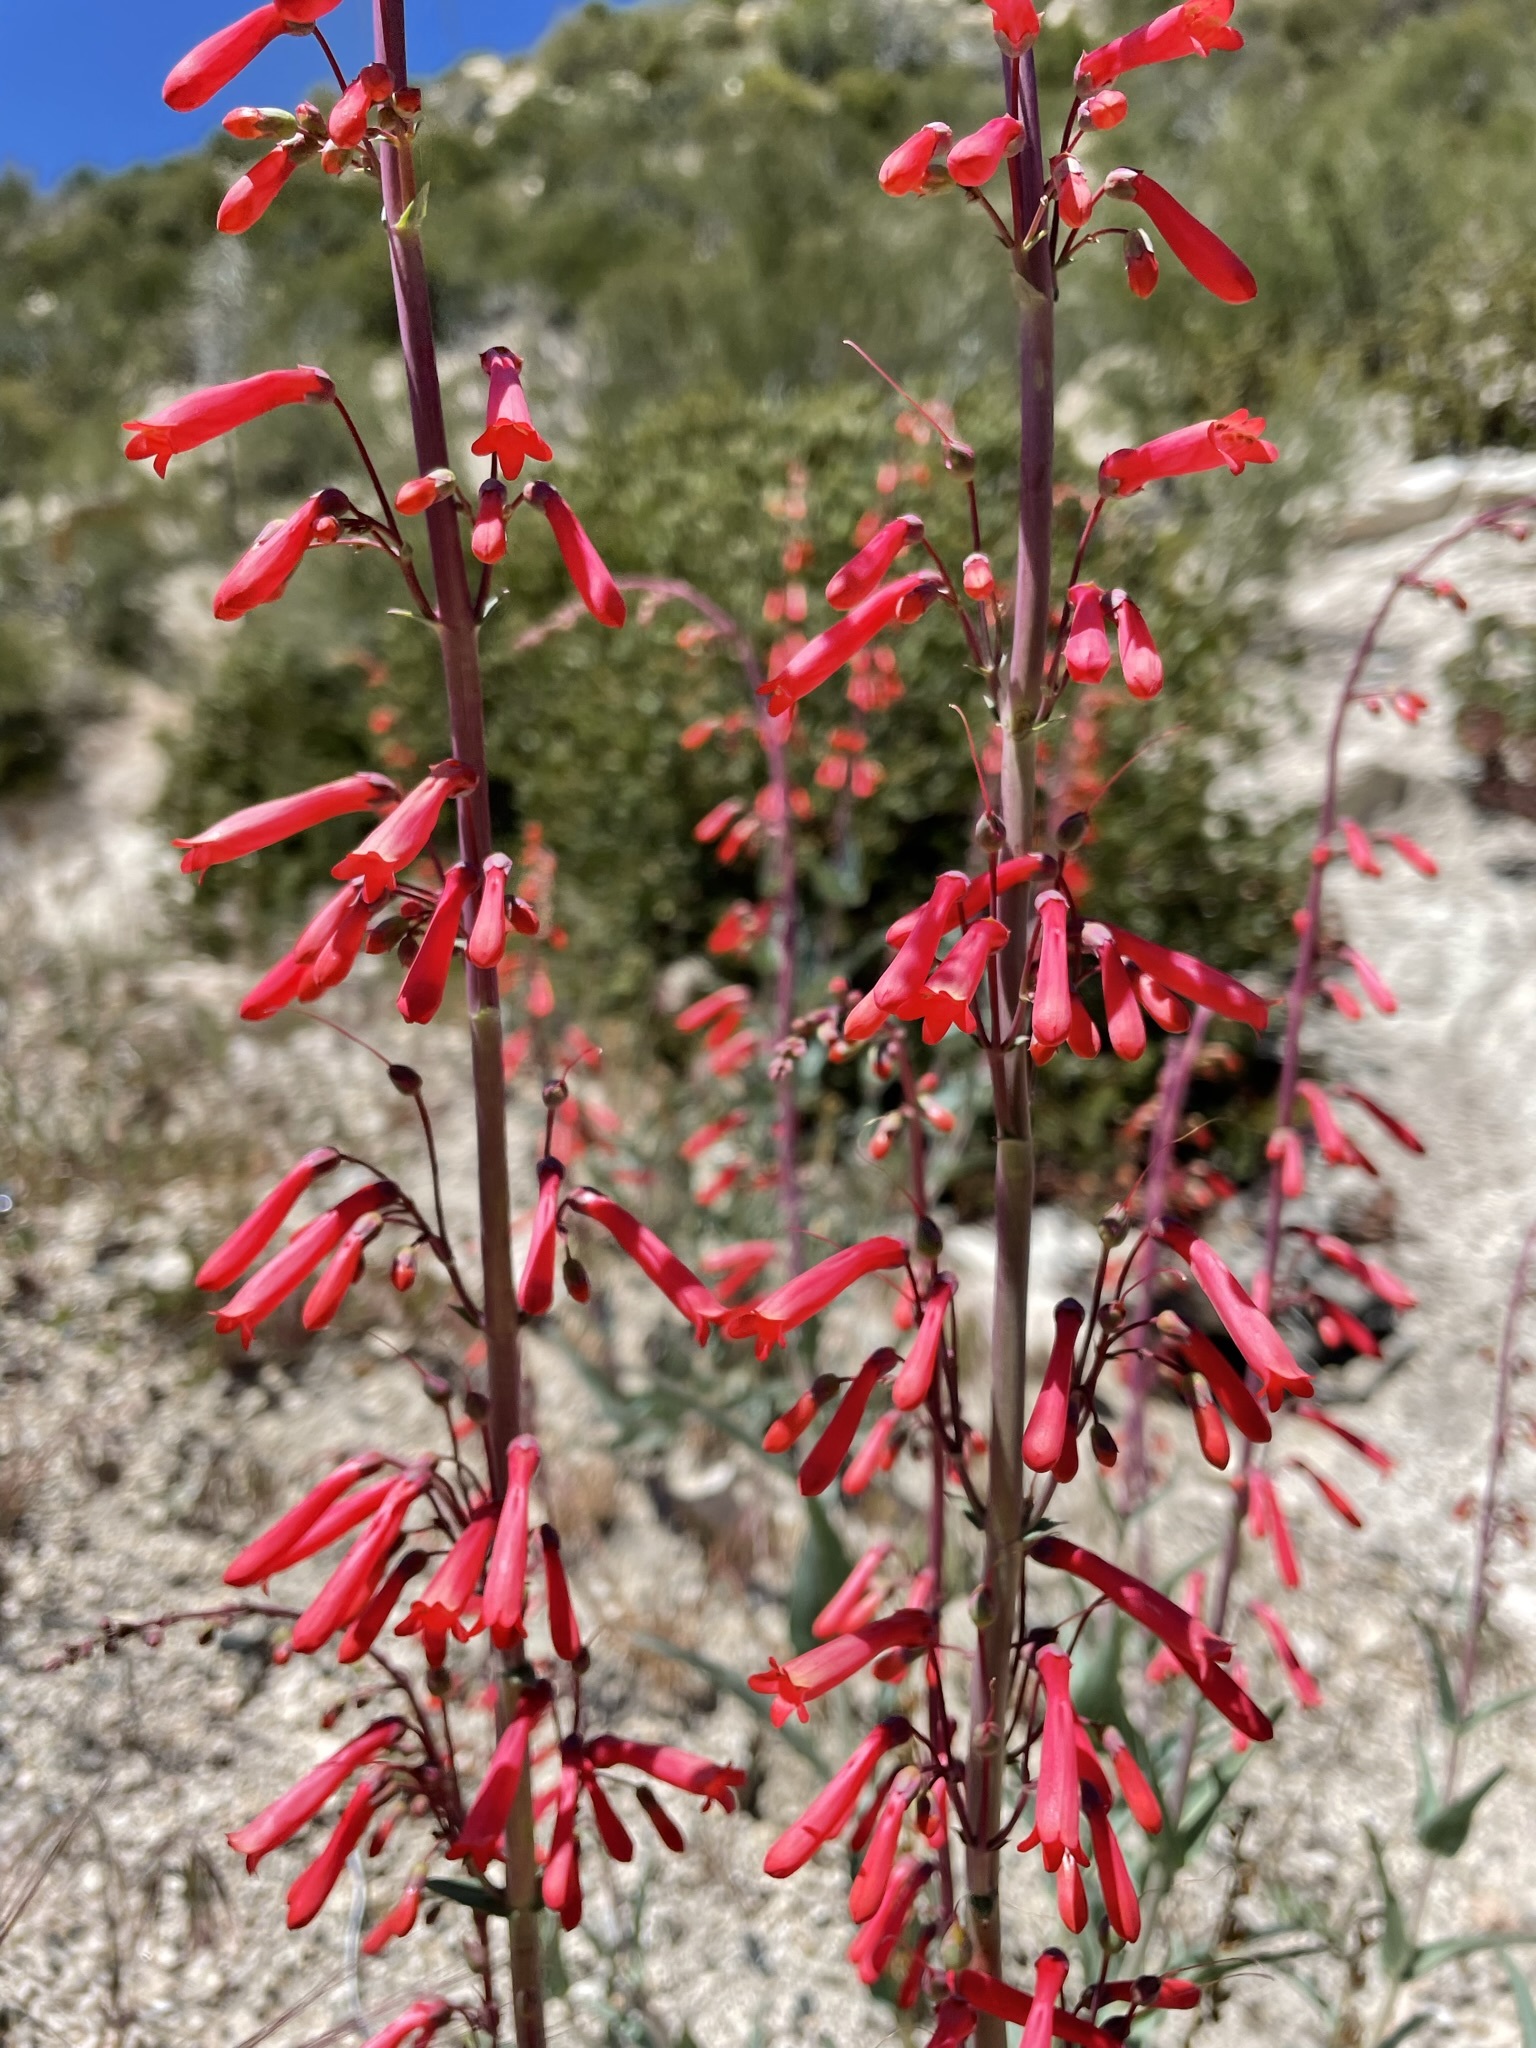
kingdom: Plantae
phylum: Tracheophyta
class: Magnoliopsida
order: Lamiales
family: Plantaginaceae
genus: Penstemon
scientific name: Penstemon centranthifolius
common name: Scarlet bugler
